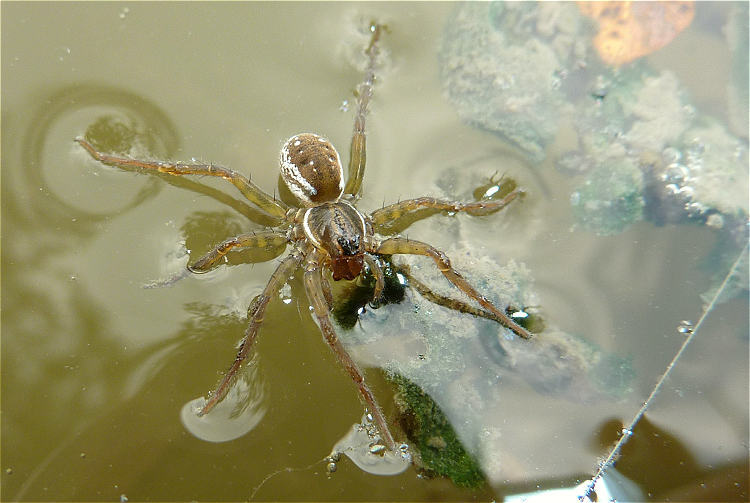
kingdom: Animalia
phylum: Arthropoda
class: Arachnida
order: Araneae
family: Lycosidae
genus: Pirata
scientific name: Pirata piraticus
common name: Pirate otter spider
